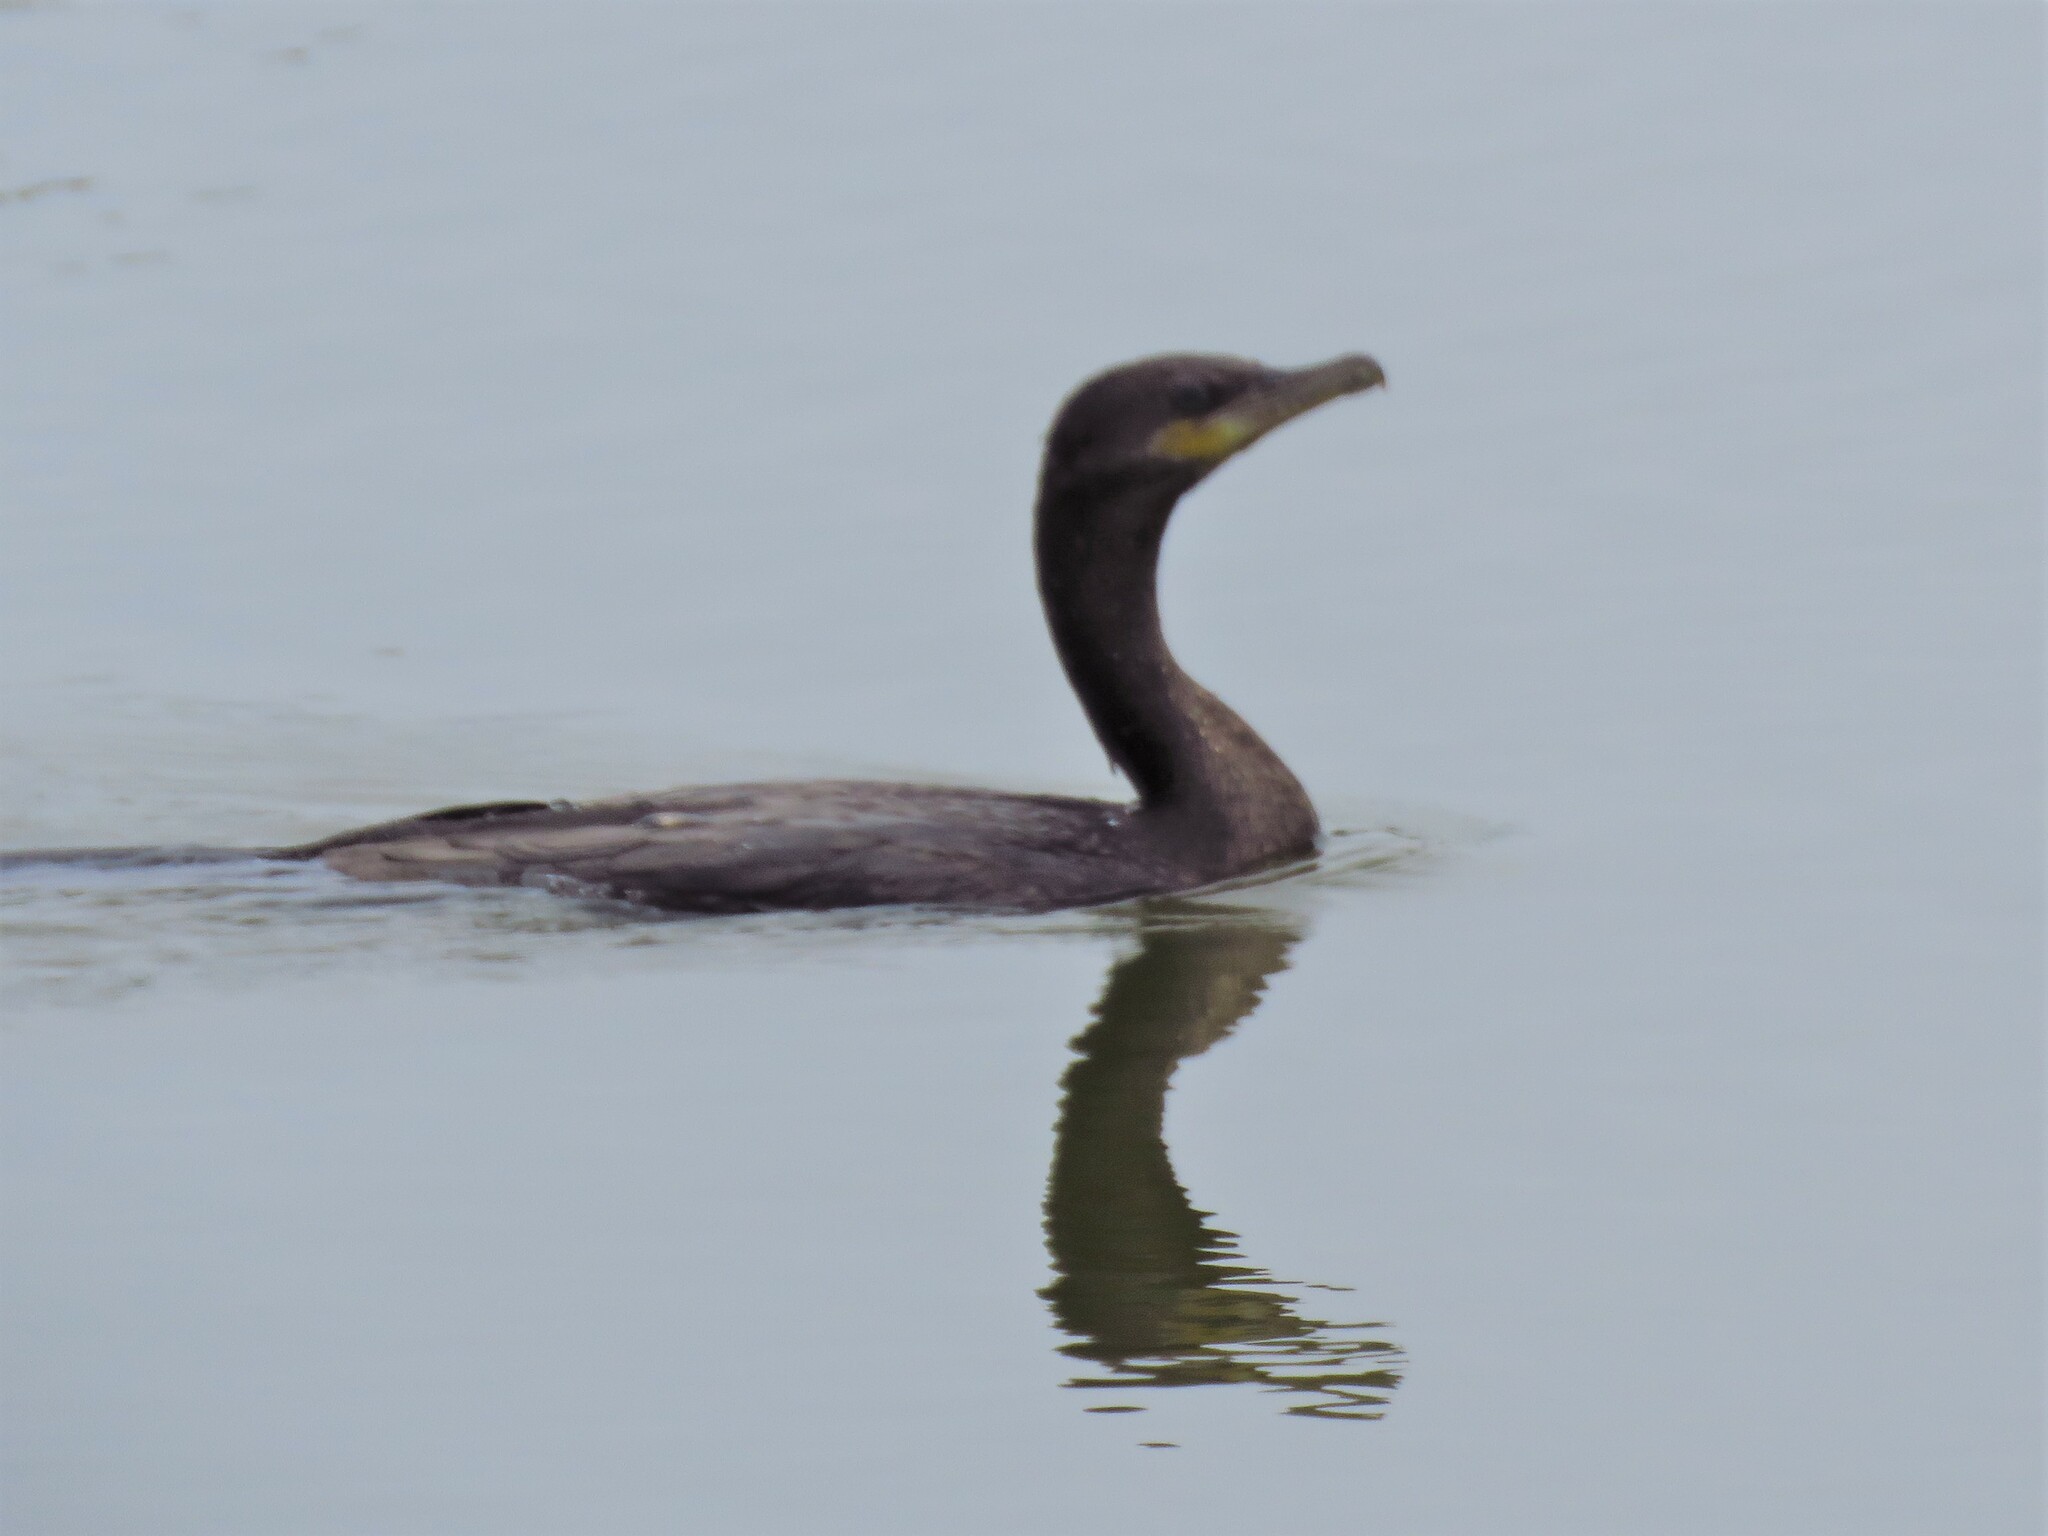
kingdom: Animalia
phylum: Chordata
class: Aves
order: Suliformes
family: Phalacrocoracidae
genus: Phalacrocorax
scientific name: Phalacrocorax brasilianus
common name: Neotropic cormorant
